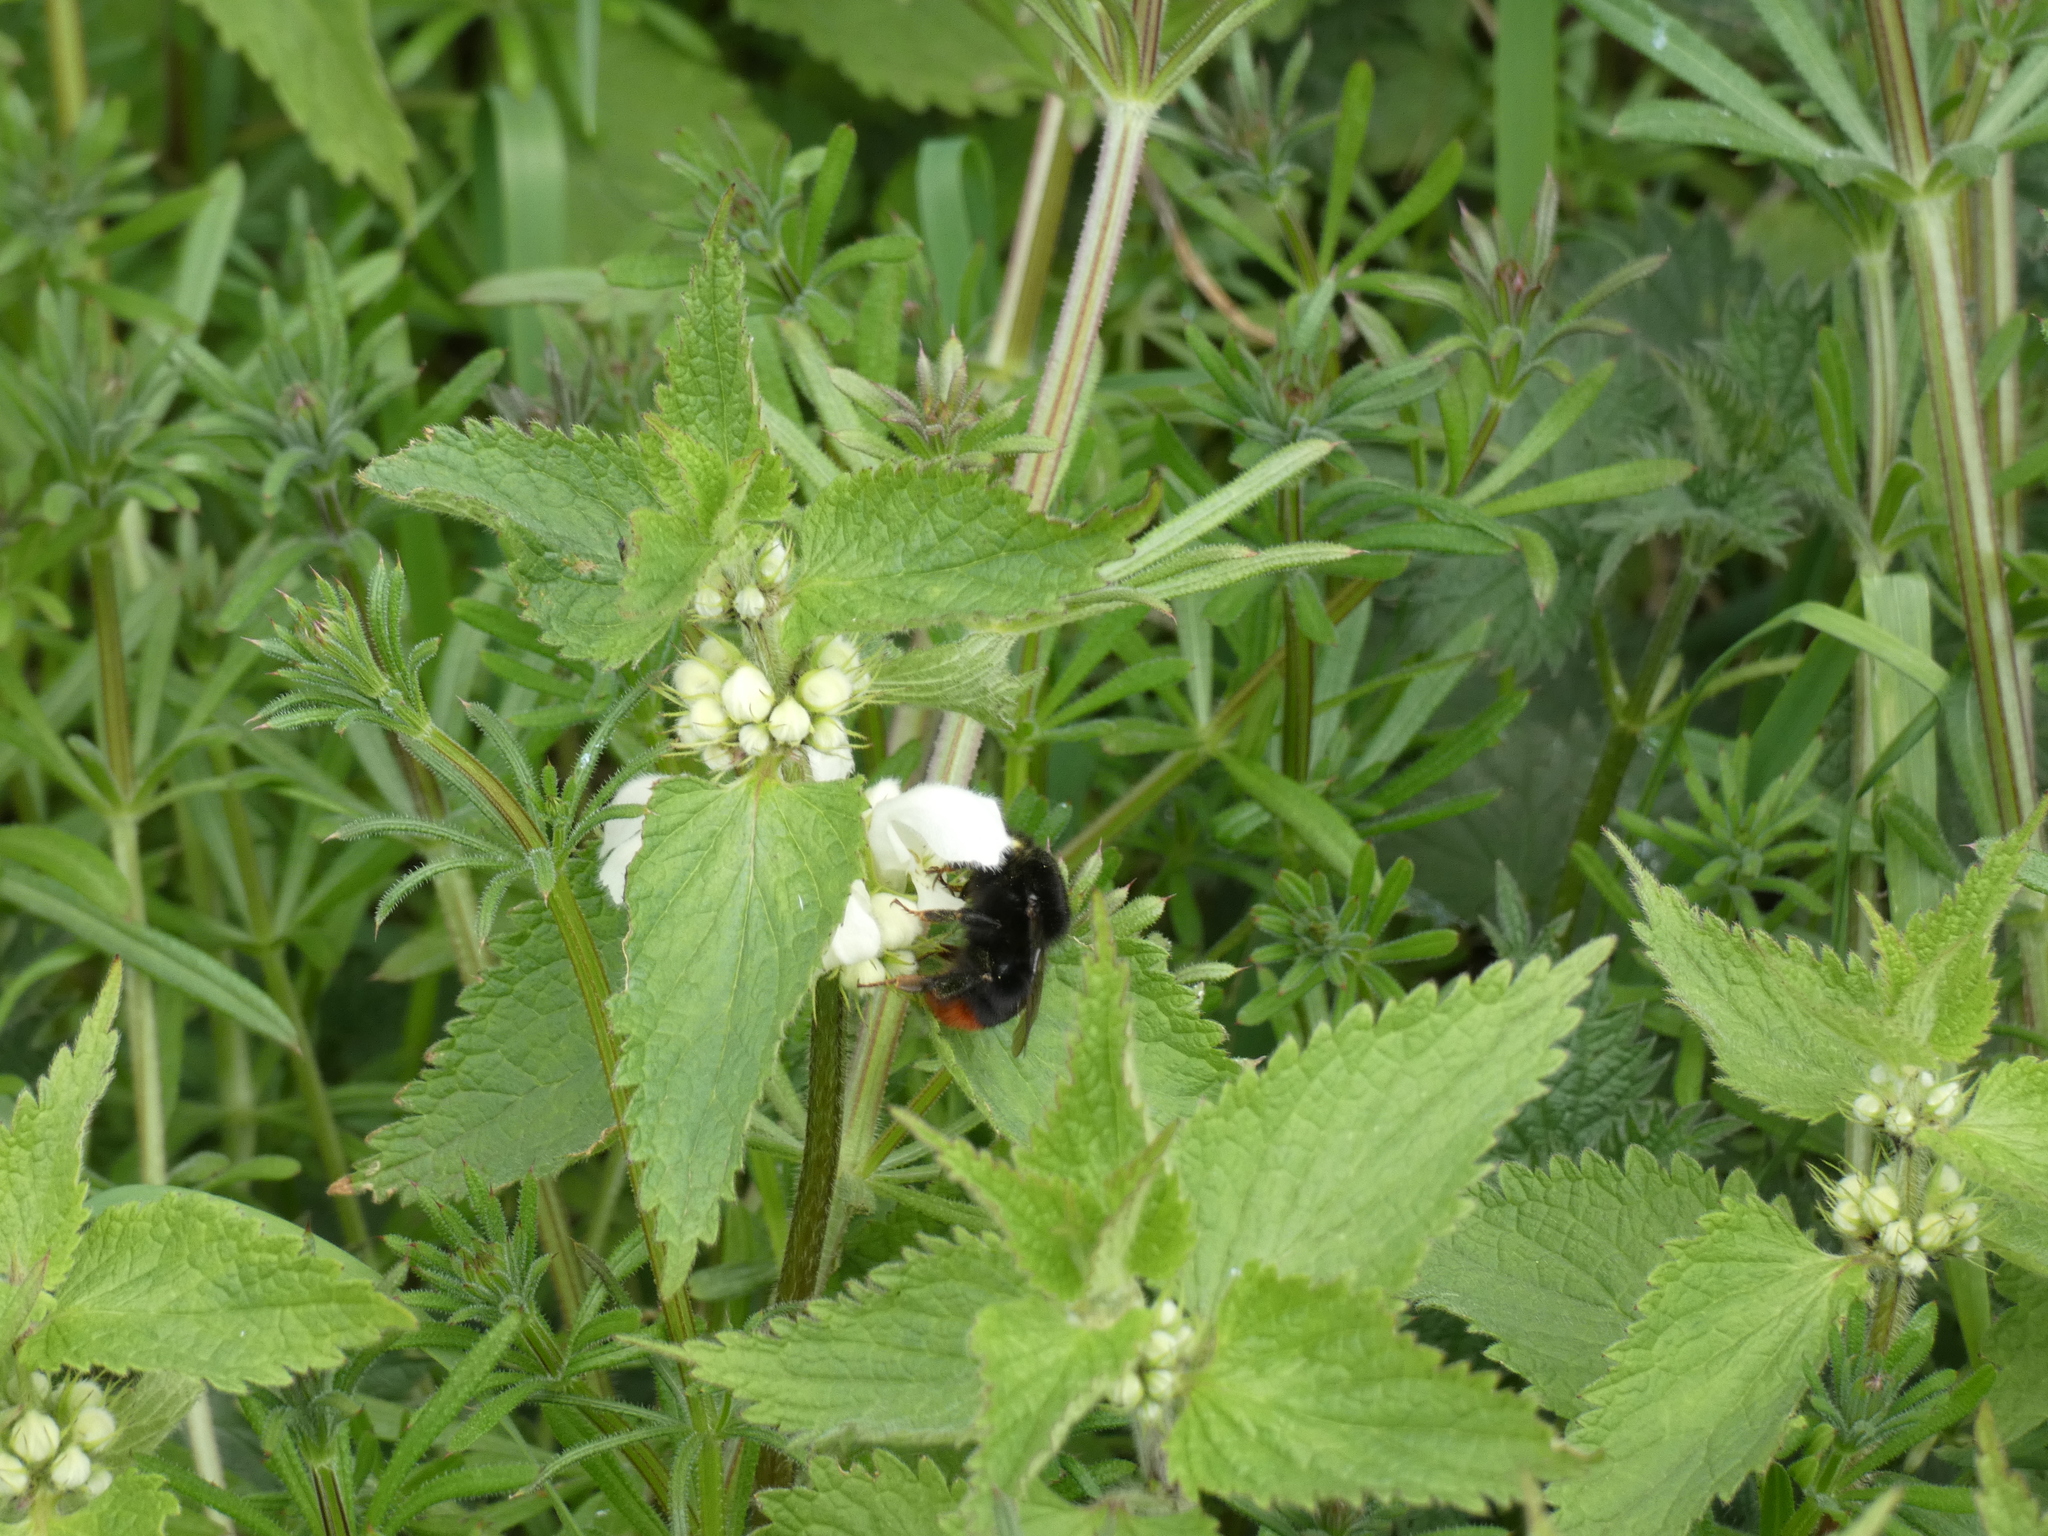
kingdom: Animalia
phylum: Arthropoda
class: Insecta
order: Hymenoptera
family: Apidae
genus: Bombus
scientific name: Bombus lapidarius
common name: Large red-tailed humble-bee
